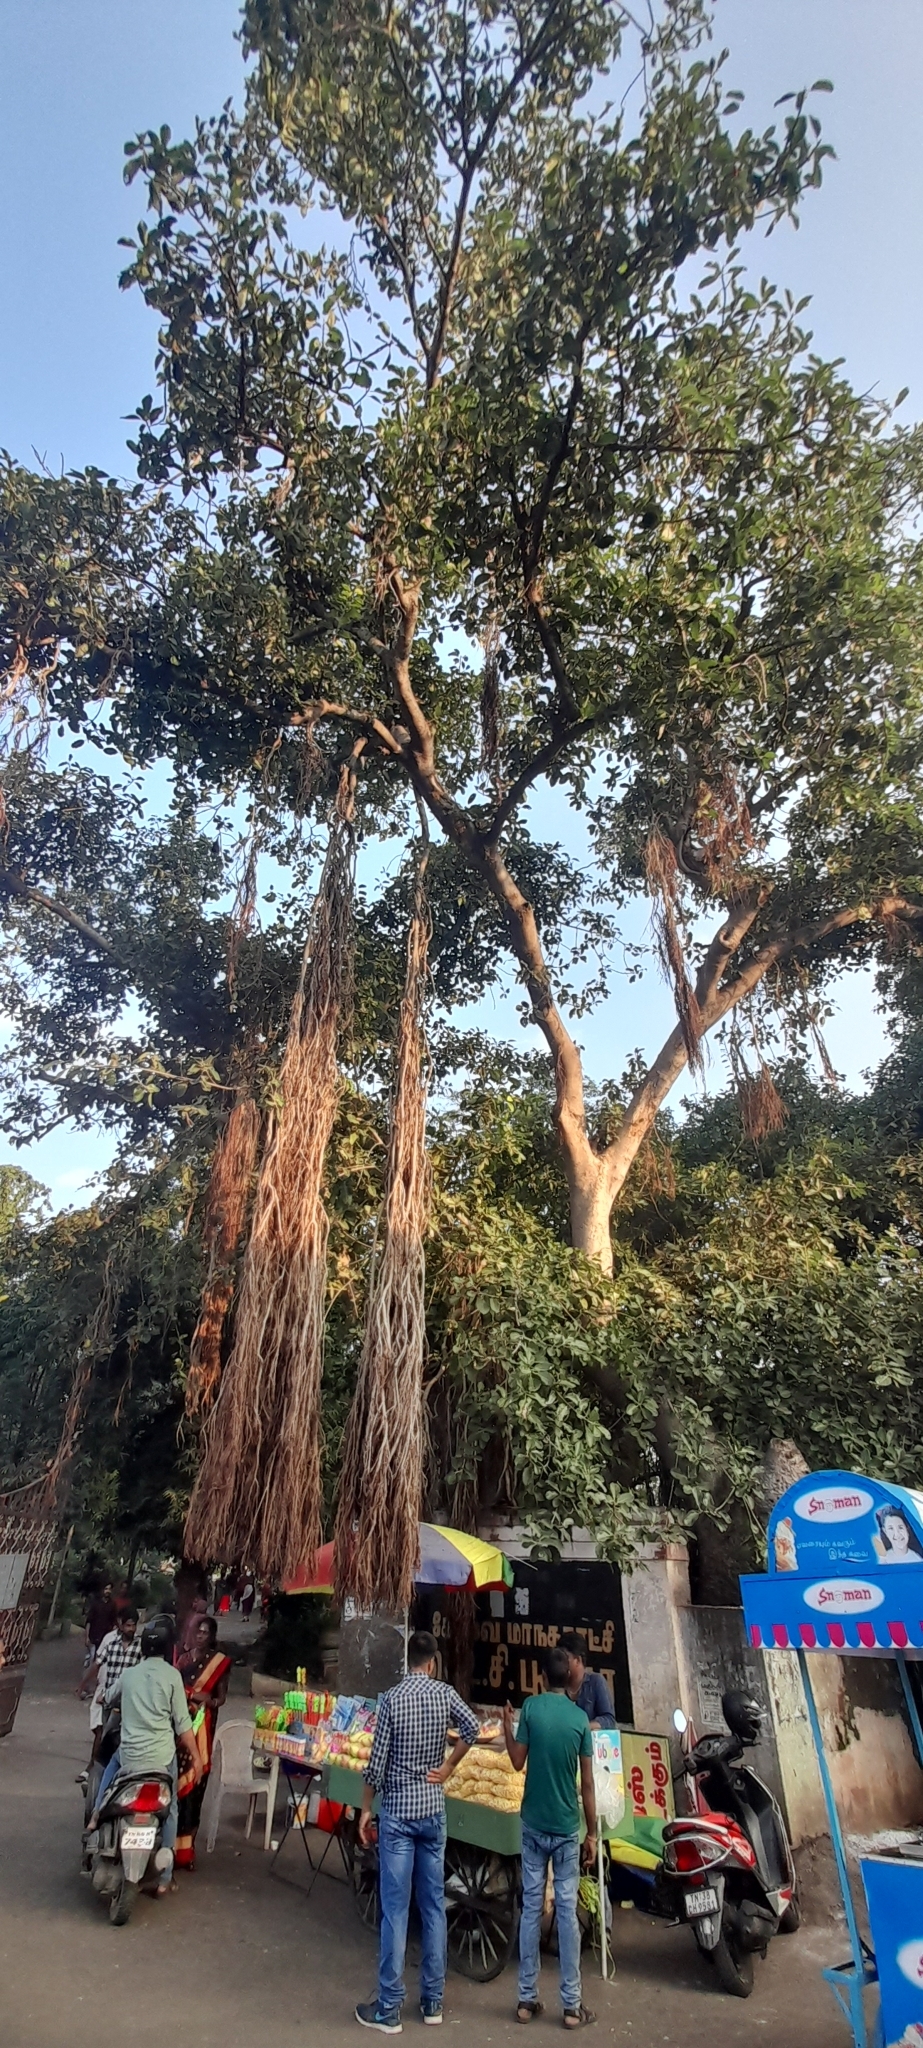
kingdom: Plantae
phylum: Tracheophyta
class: Magnoliopsida
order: Rosales
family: Moraceae
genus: Ficus
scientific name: Ficus benghalensis
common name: Indian banyan
